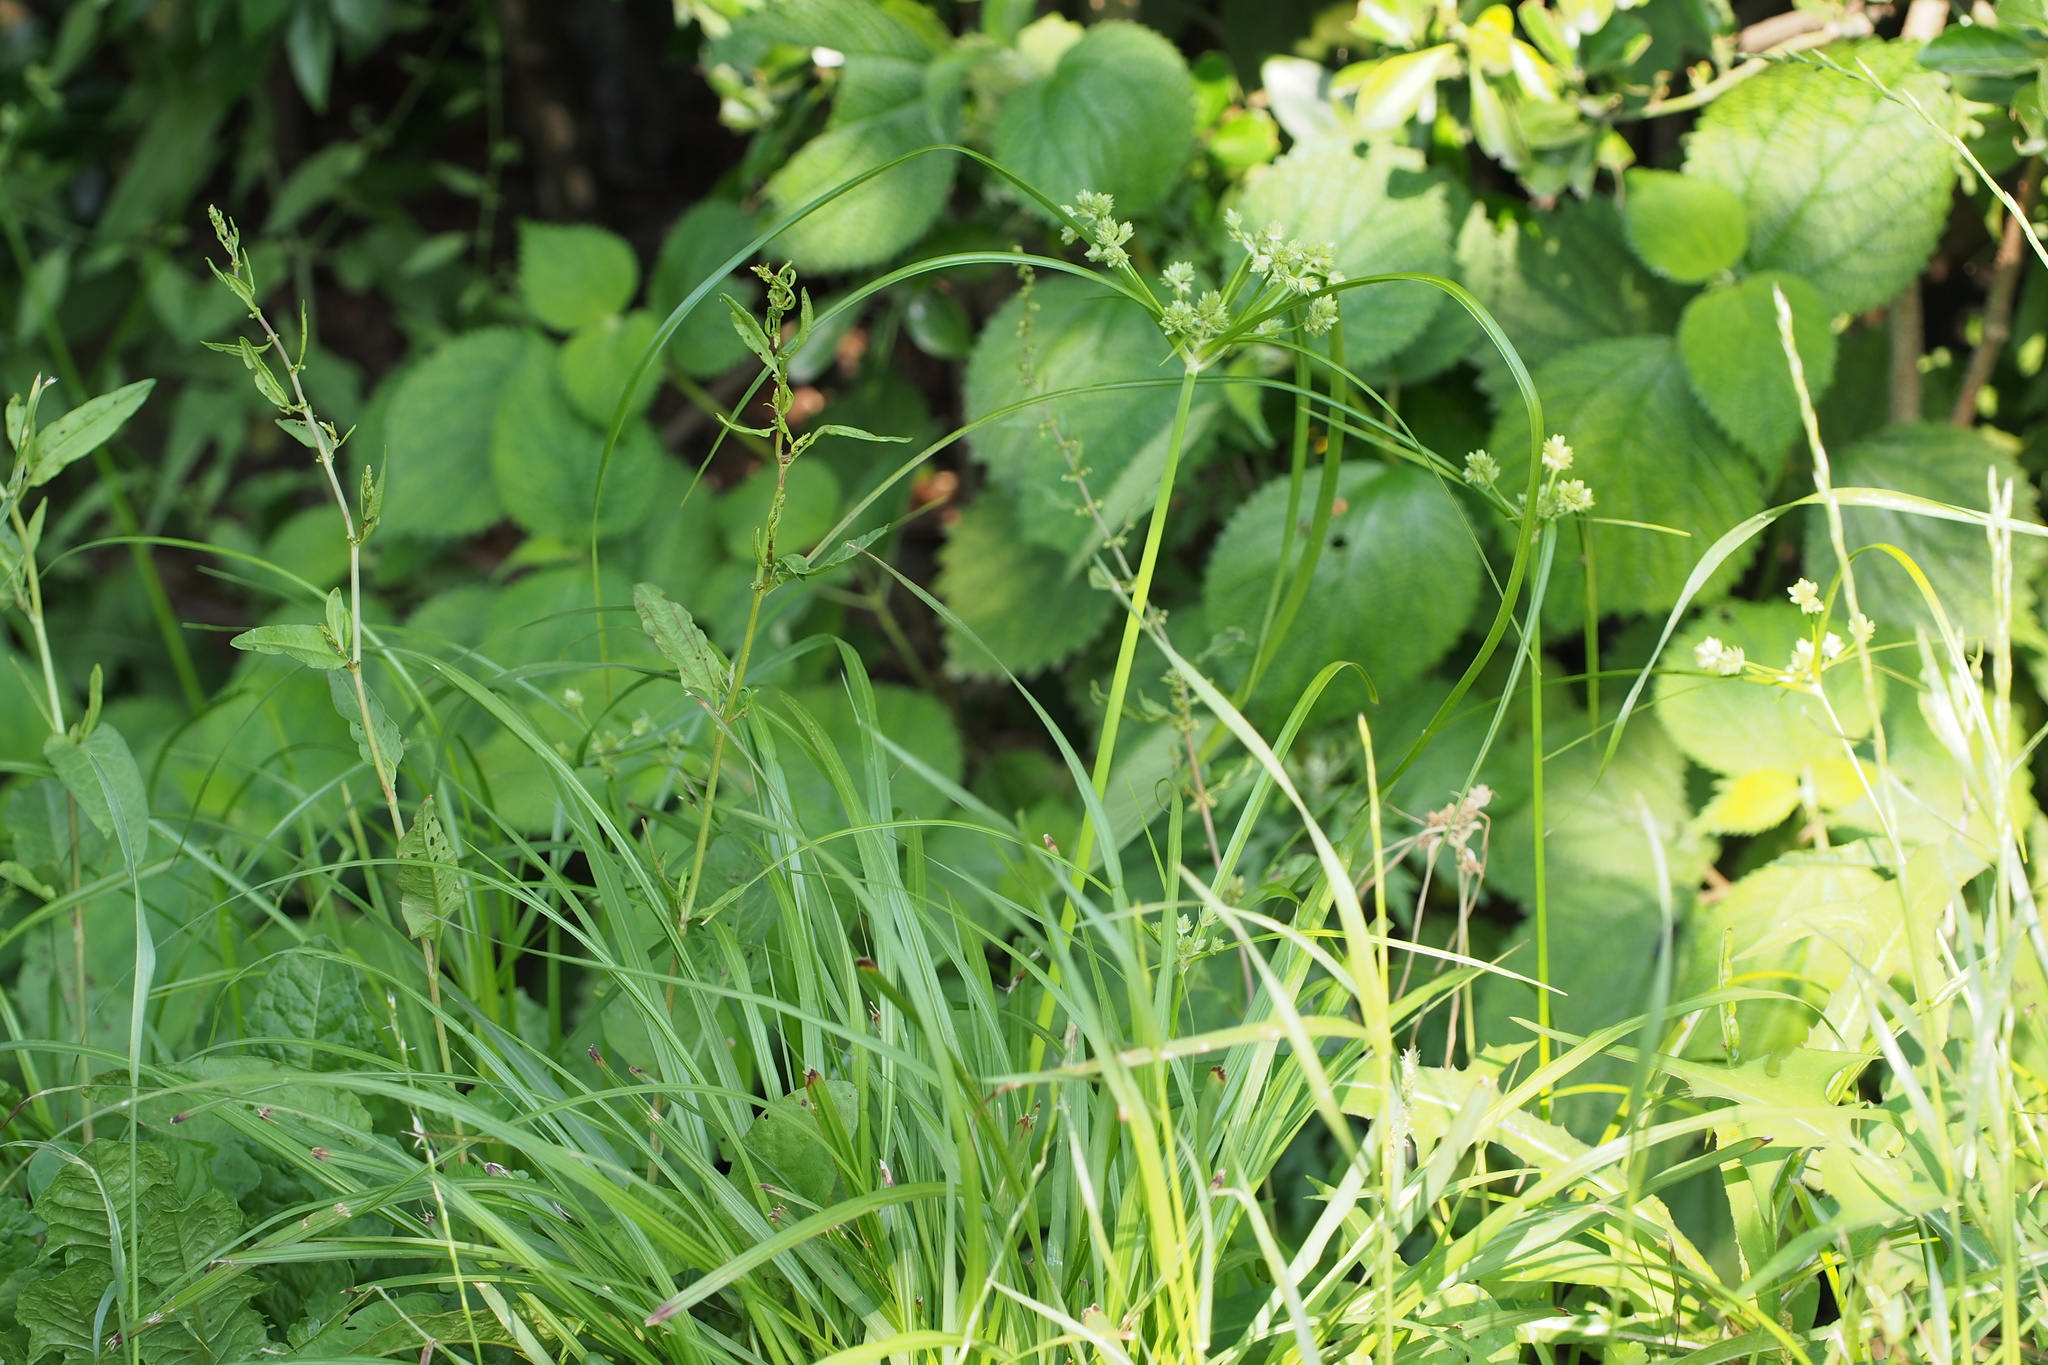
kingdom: Plantae
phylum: Tracheophyta
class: Liliopsida
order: Poales
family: Cyperaceae
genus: Cyperus
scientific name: Cyperus eragrostis
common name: Tall flatsedge
